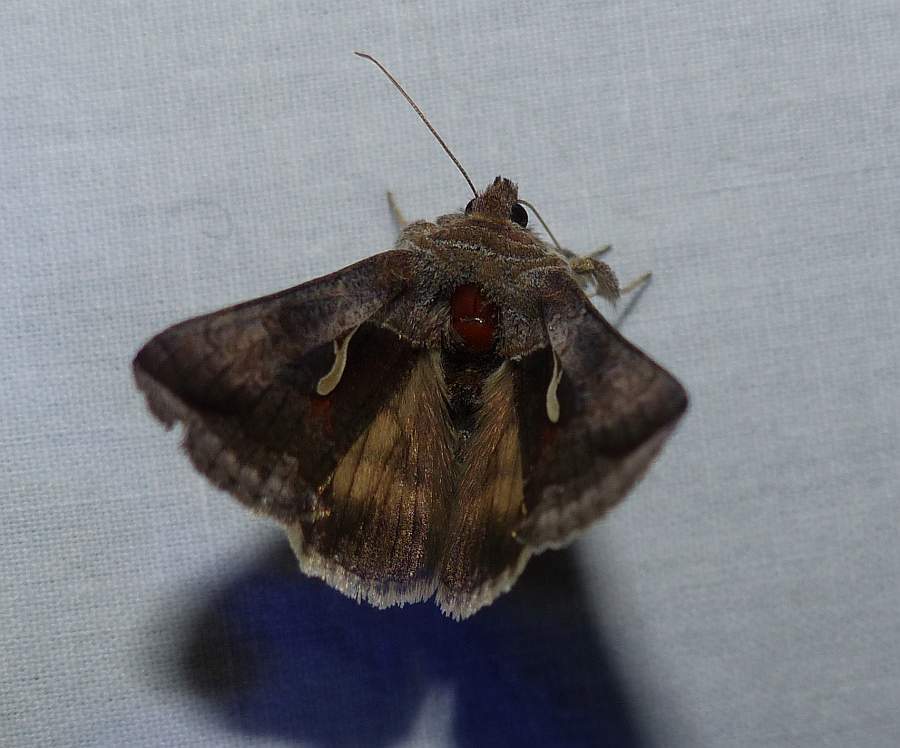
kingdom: Animalia
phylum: Arthropoda
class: Insecta
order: Lepidoptera
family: Noctuidae
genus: Anagrapha
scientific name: Anagrapha falcifera
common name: Celery looper
